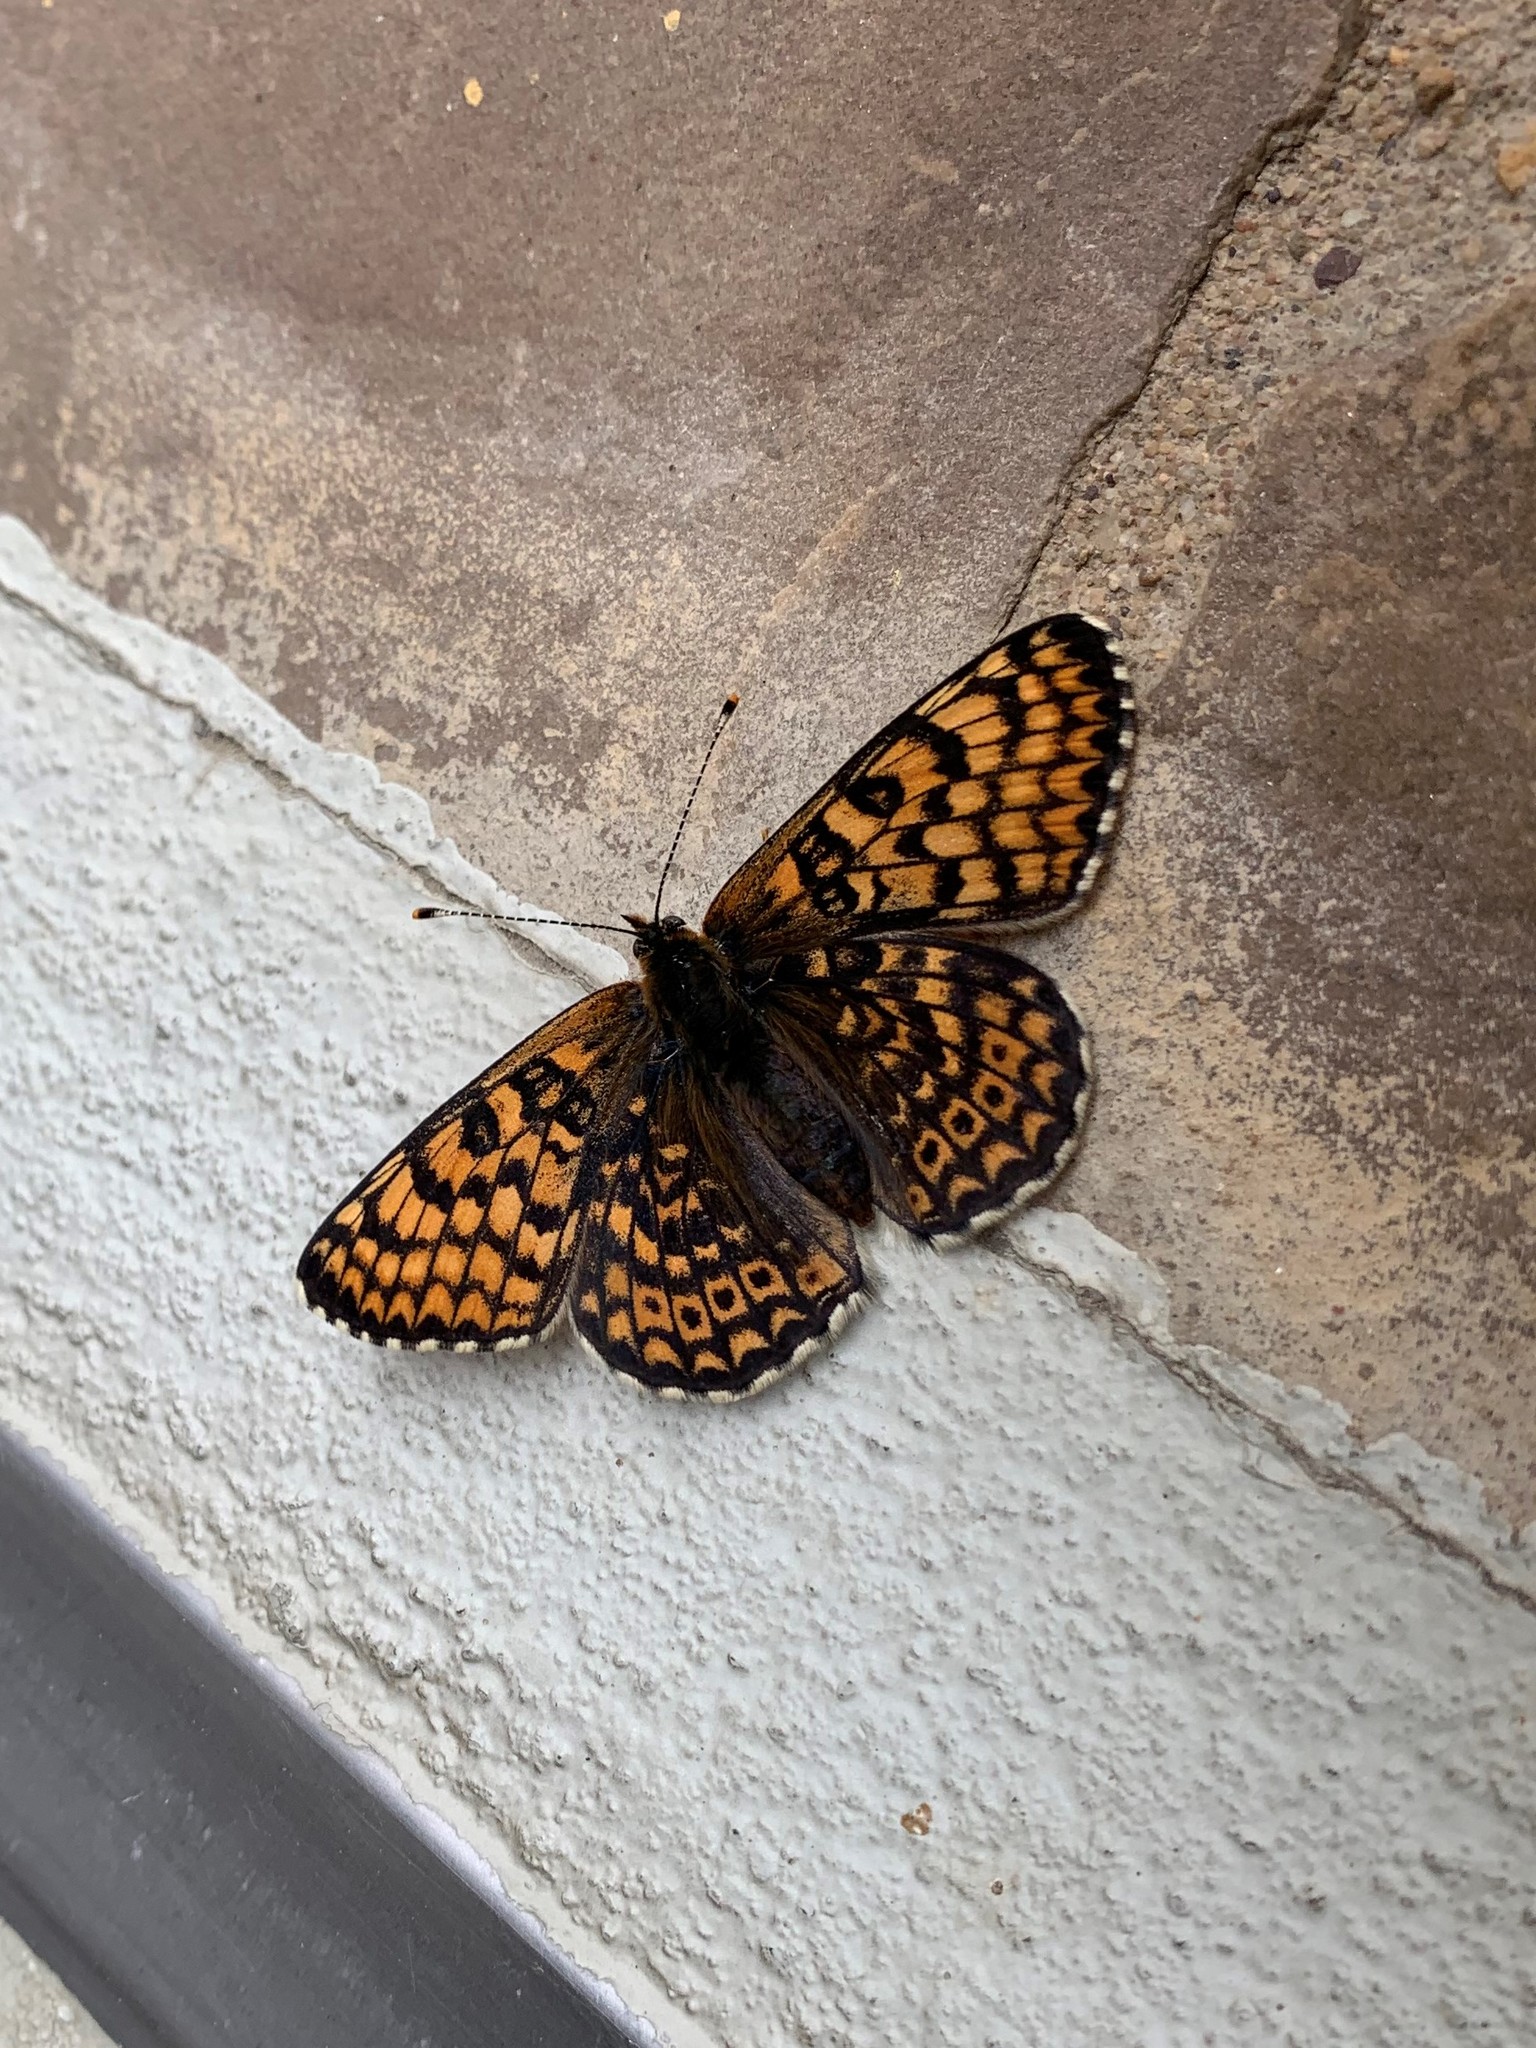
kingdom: Animalia
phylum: Arthropoda
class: Insecta
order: Lepidoptera
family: Nymphalidae
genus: Melitaea
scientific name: Melitaea cinxia
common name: Glanville fritillary
